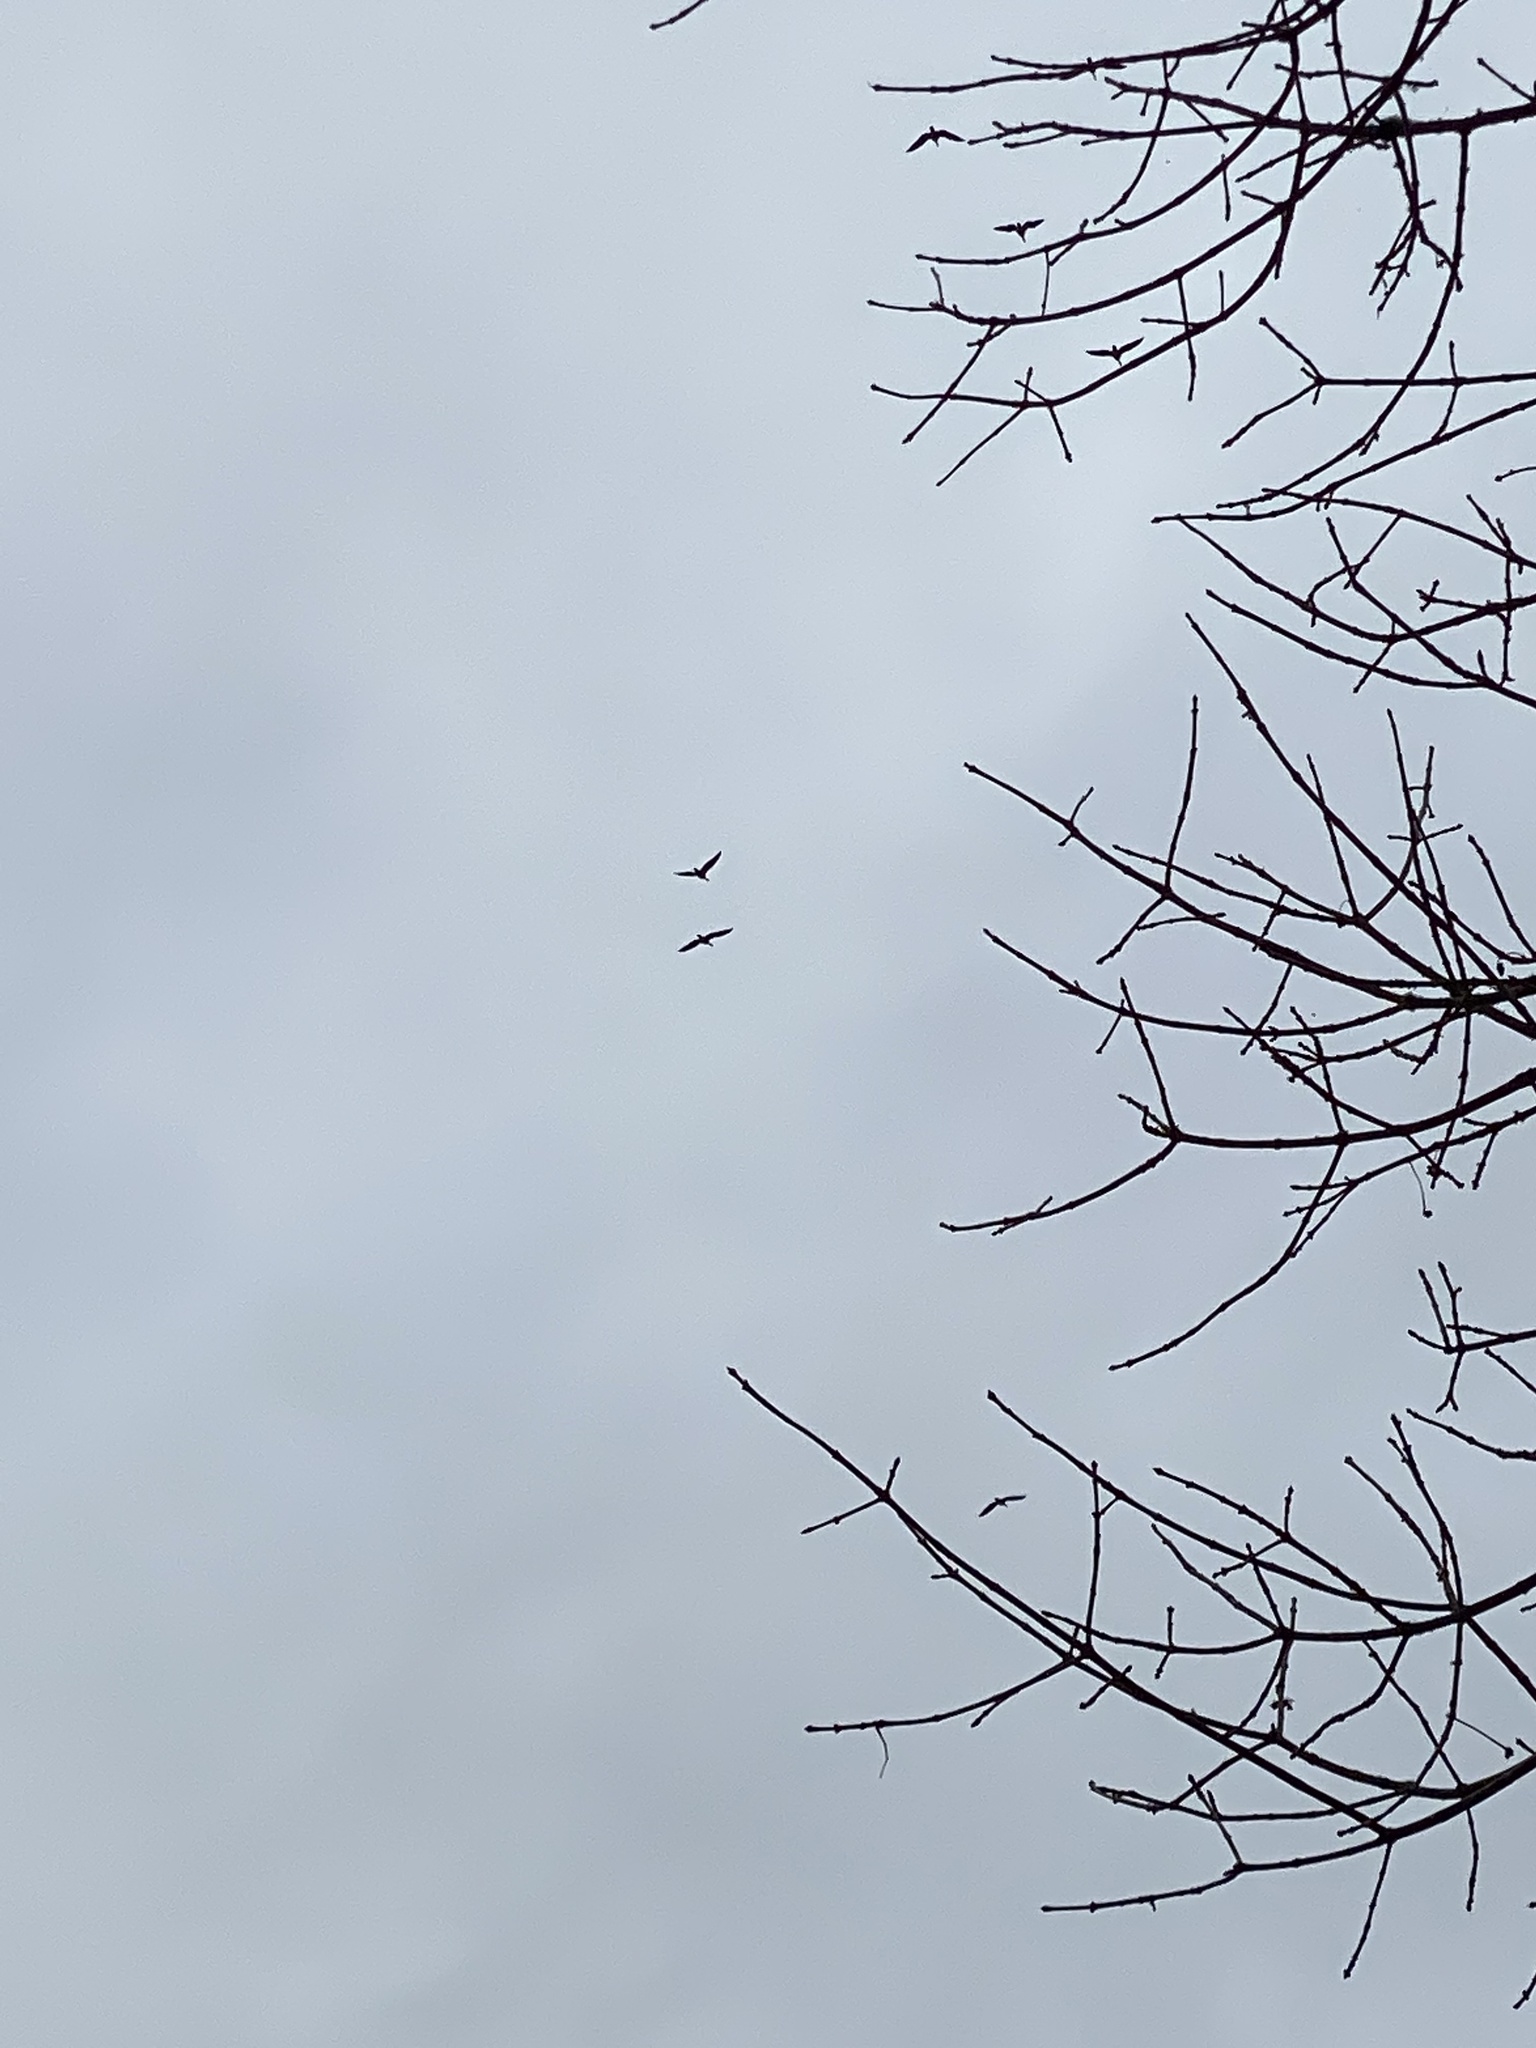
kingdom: Animalia
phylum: Chordata
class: Aves
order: Anseriformes
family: Anatidae
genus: Branta
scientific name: Branta canadensis
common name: Canada goose
